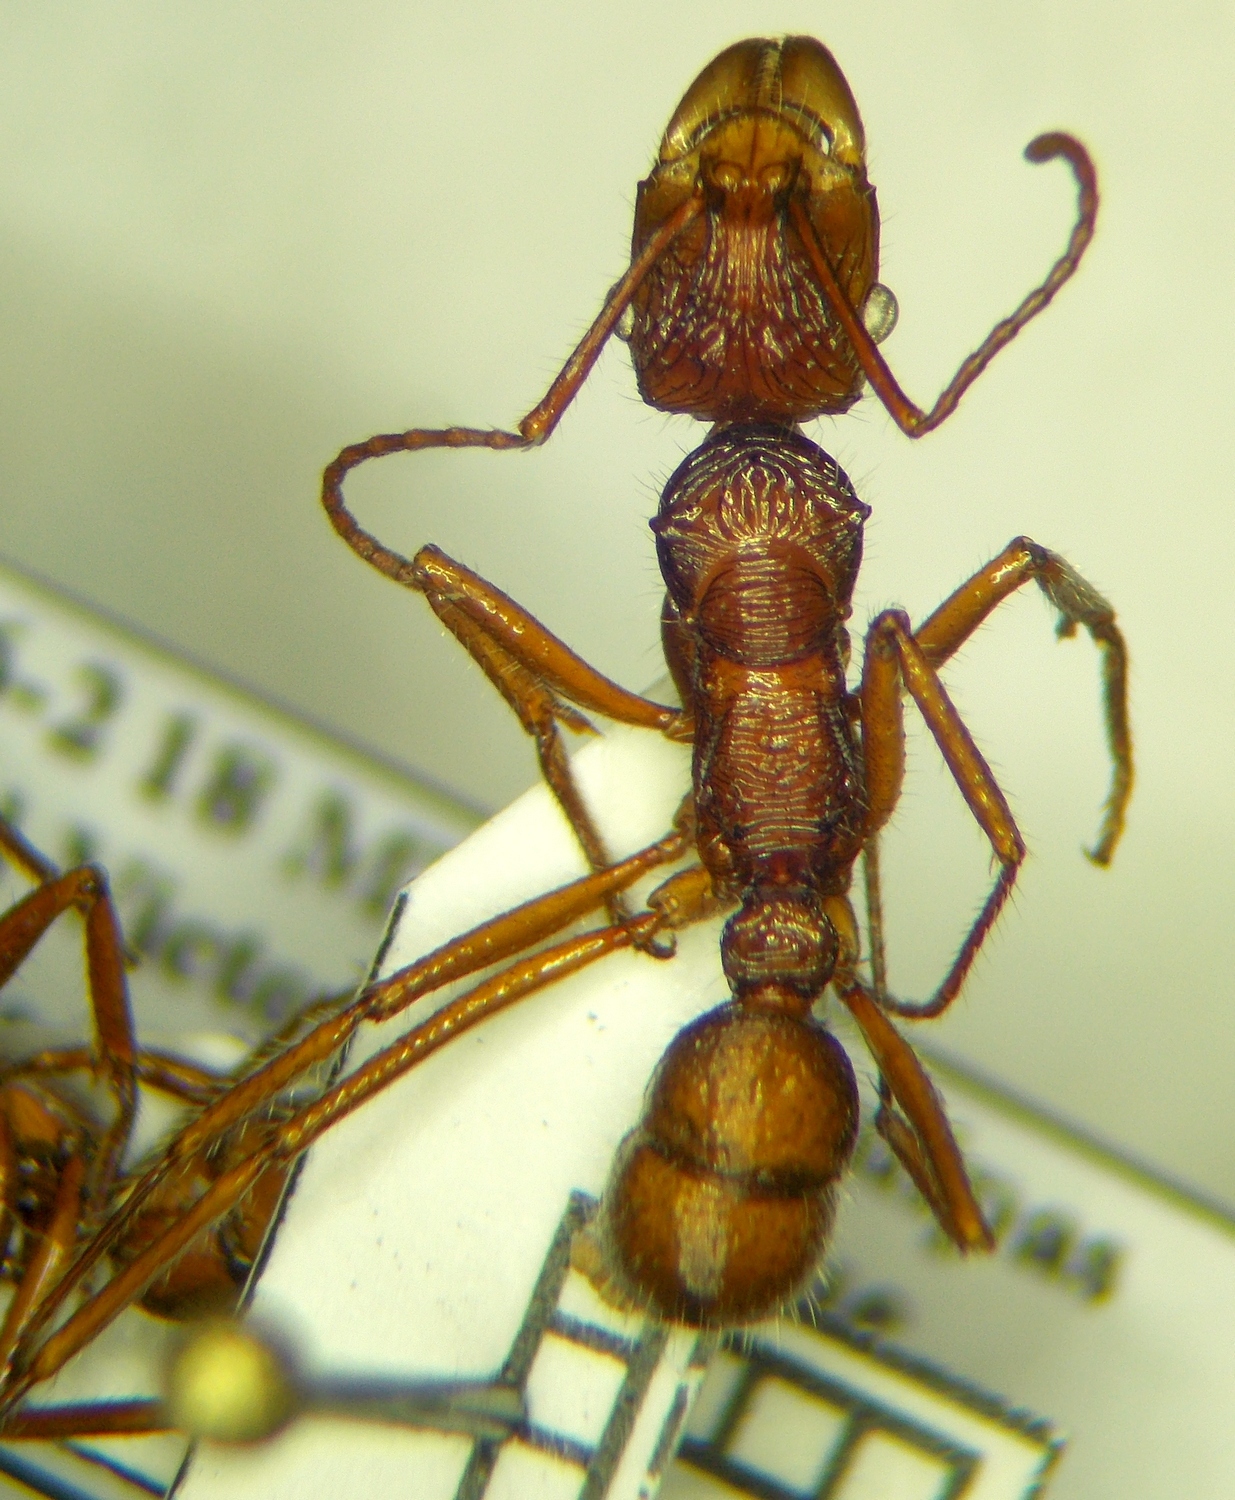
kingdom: Animalia
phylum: Arthropoda
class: Insecta
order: Hymenoptera
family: Formicidae
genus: Ectatomma
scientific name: Ectatomma tuberculatum
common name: Ant
